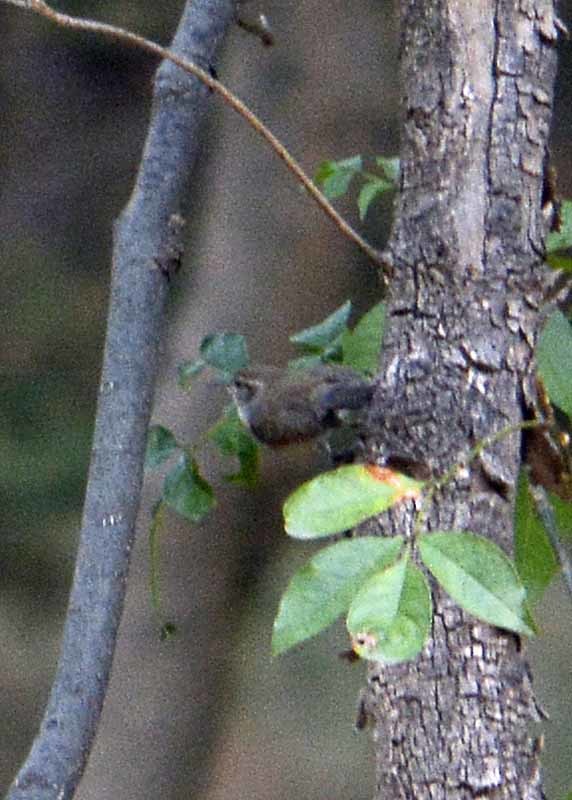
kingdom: Animalia
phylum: Chordata
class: Aves
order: Passeriformes
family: Troglodytidae
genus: Thryomanes
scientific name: Thryomanes bewickii
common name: Bewick's wren
